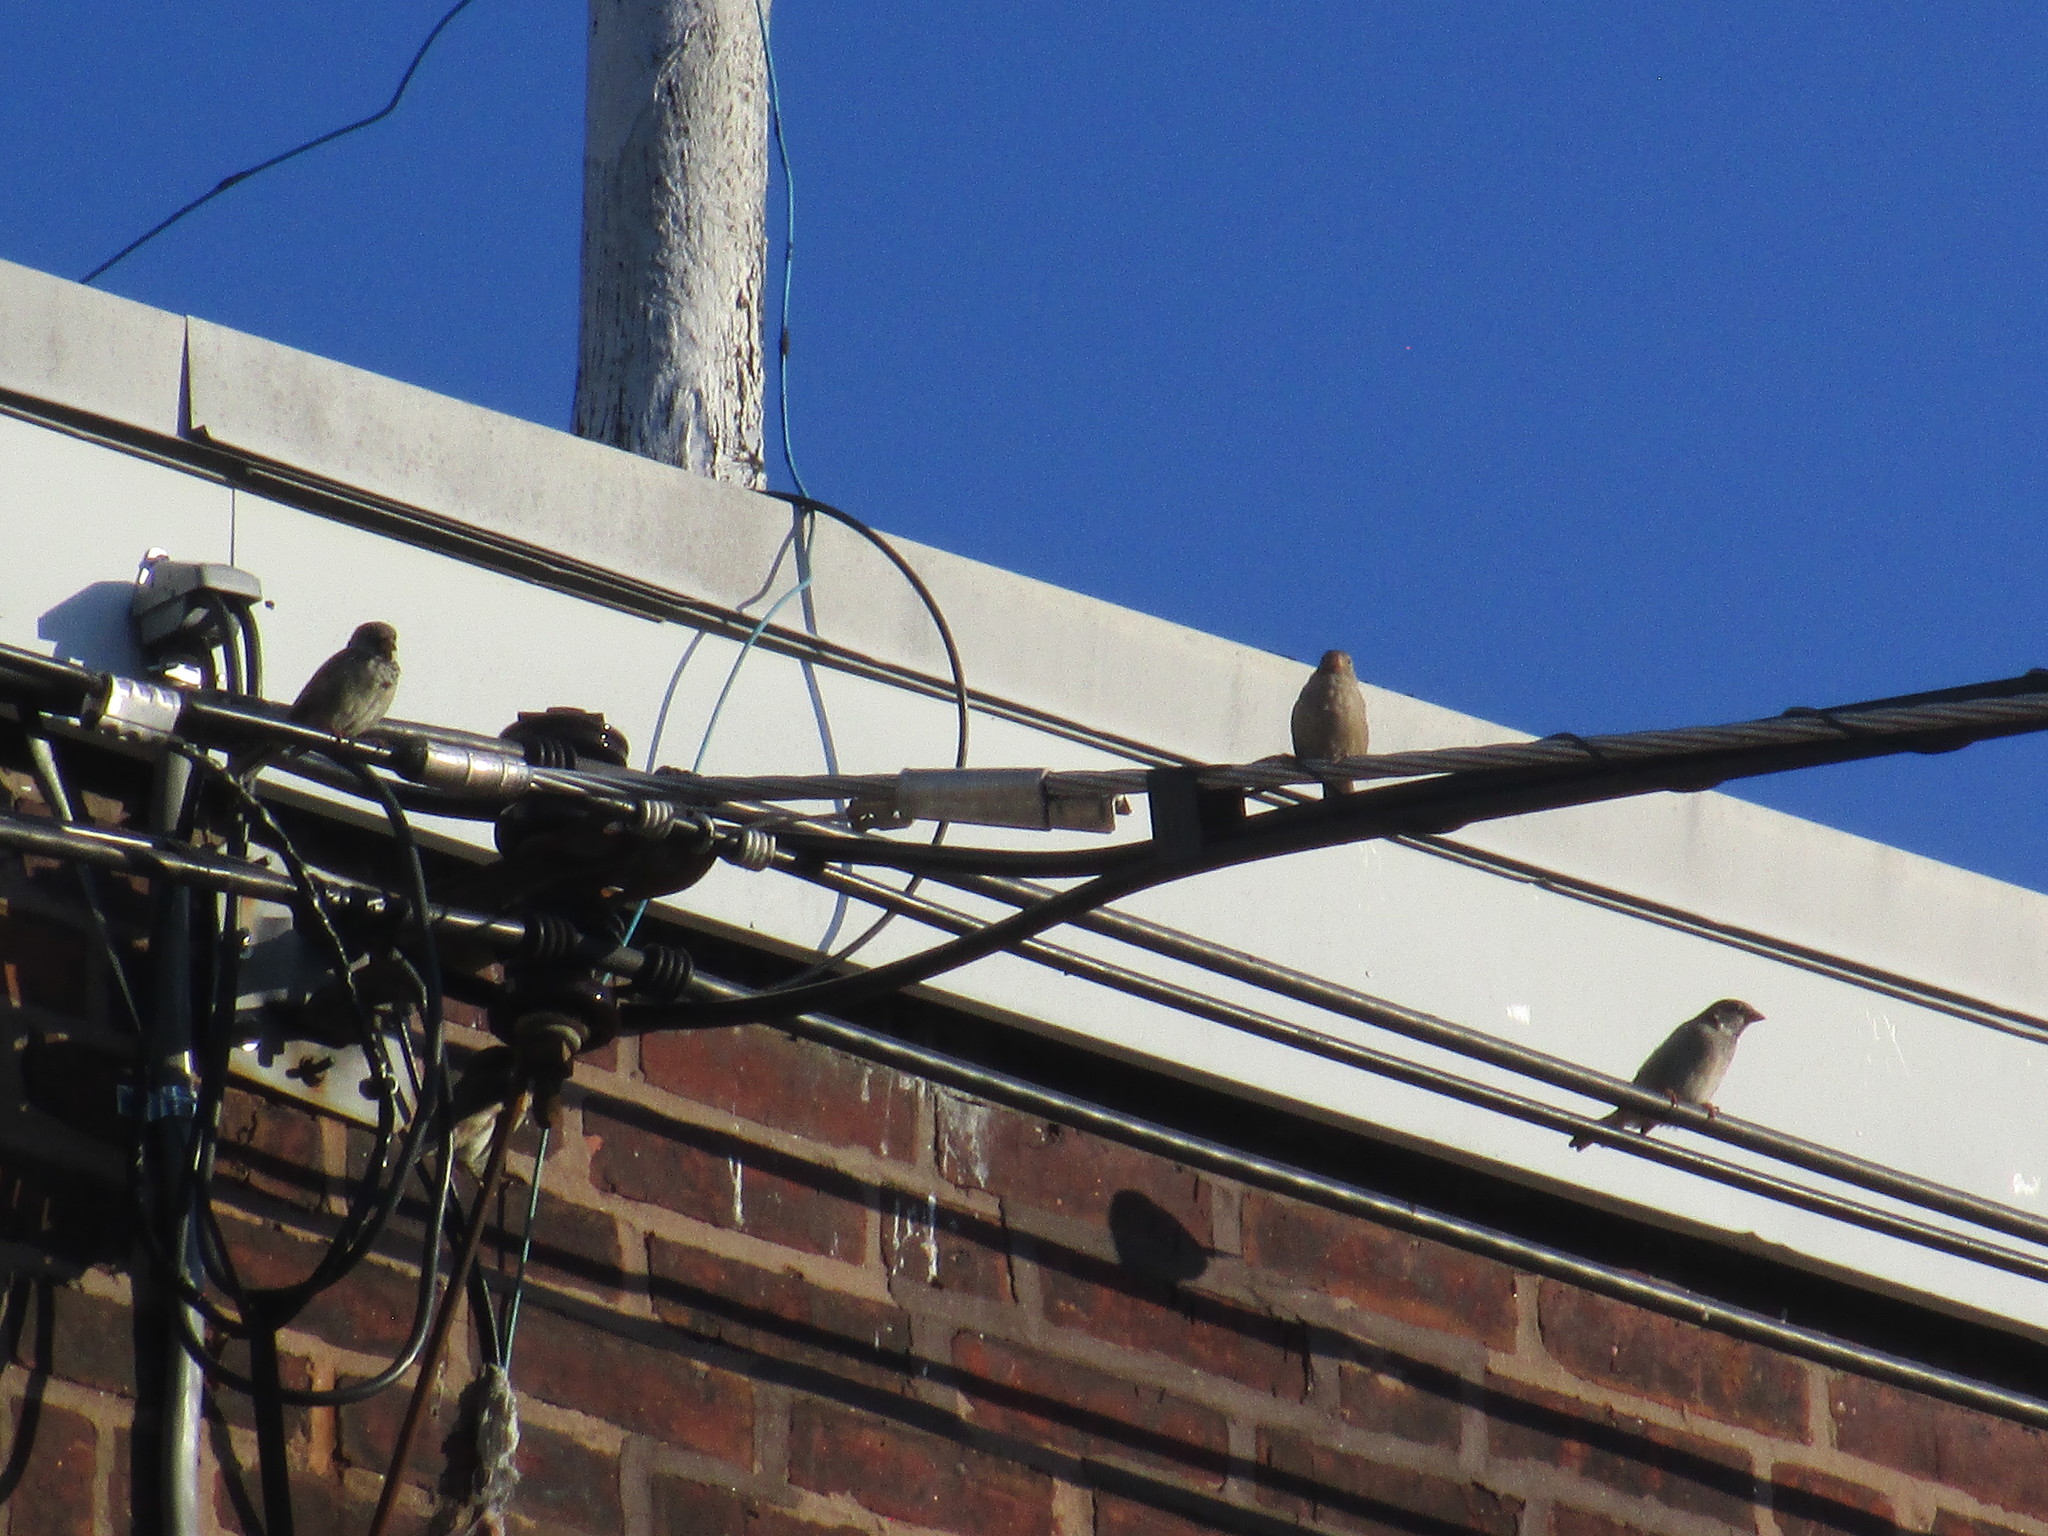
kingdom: Animalia
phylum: Chordata
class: Aves
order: Passeriformes
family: Passeridae
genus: Passer
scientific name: Passer domesticus
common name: House sparrow
